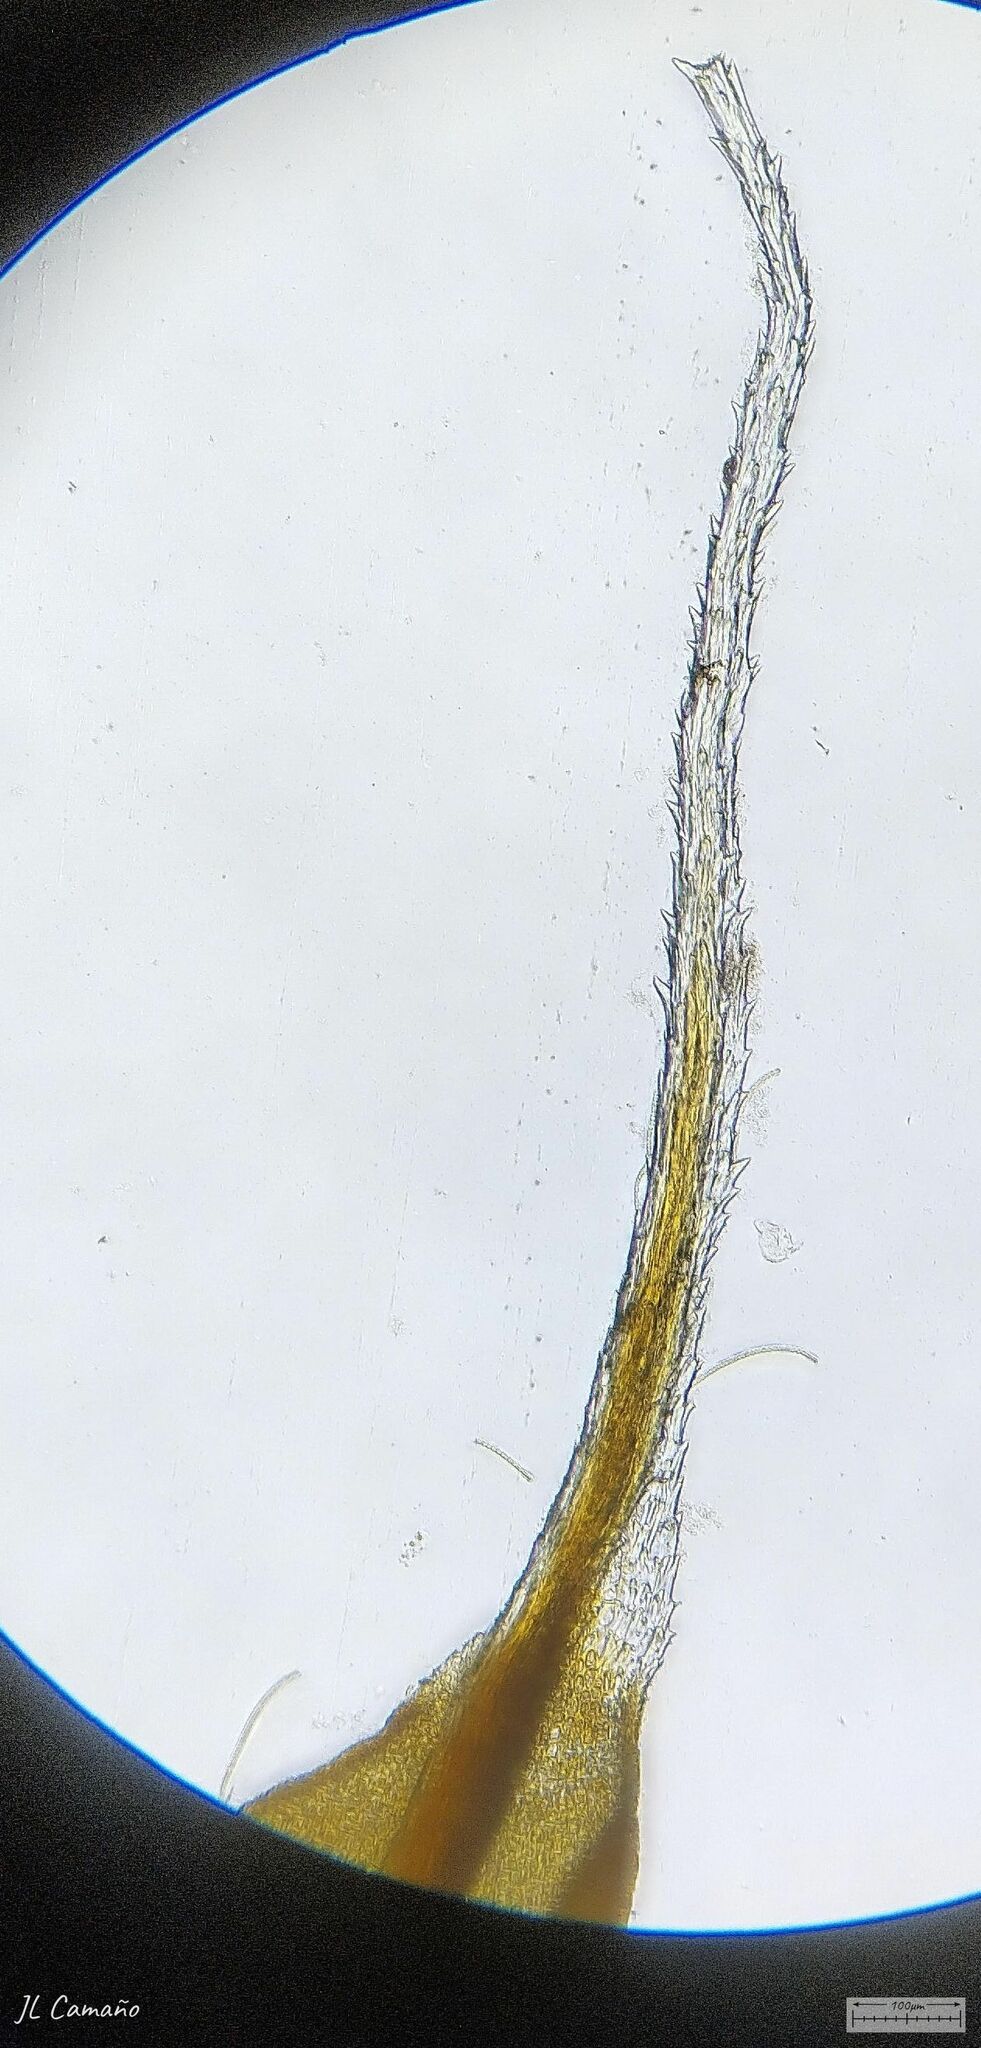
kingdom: Plantae
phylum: Bryophyta
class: Bryopsida
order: Pottiales
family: Pottiaceae
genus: Syntrichia
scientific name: Syntrichia ruralis
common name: Sidewalk screw moss
